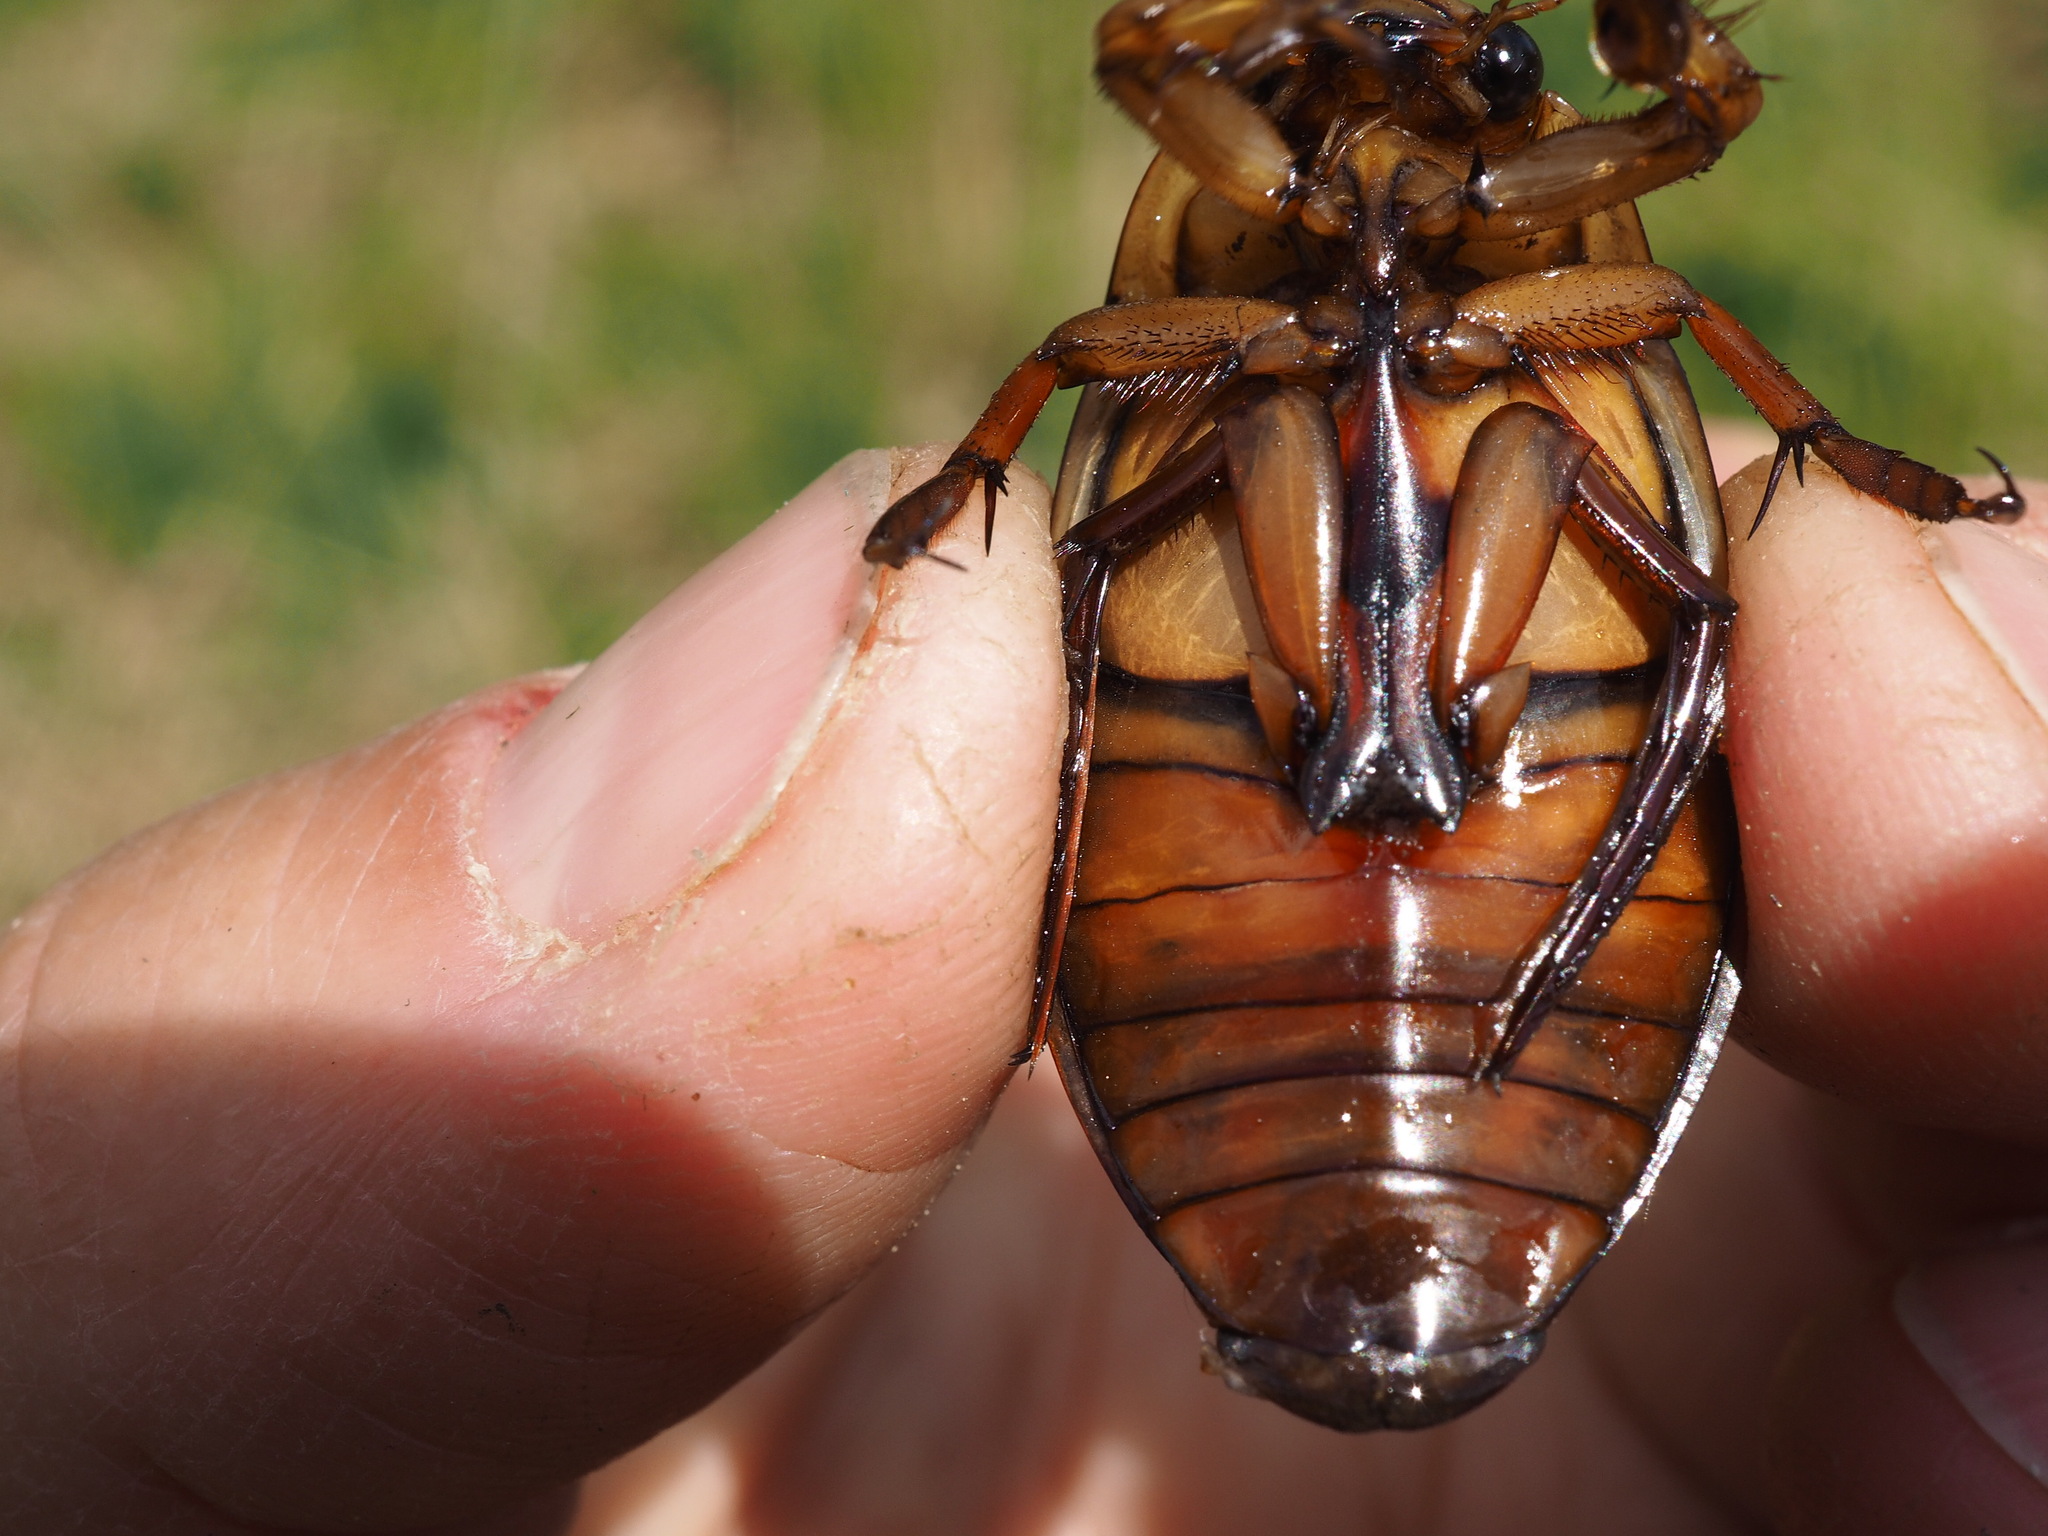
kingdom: Animalia
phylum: Arthropoda
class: Insecta
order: Coleoptera
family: Dytiscidae
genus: Dytiscus
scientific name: Dytiscus marginalis
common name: Great water beetle
